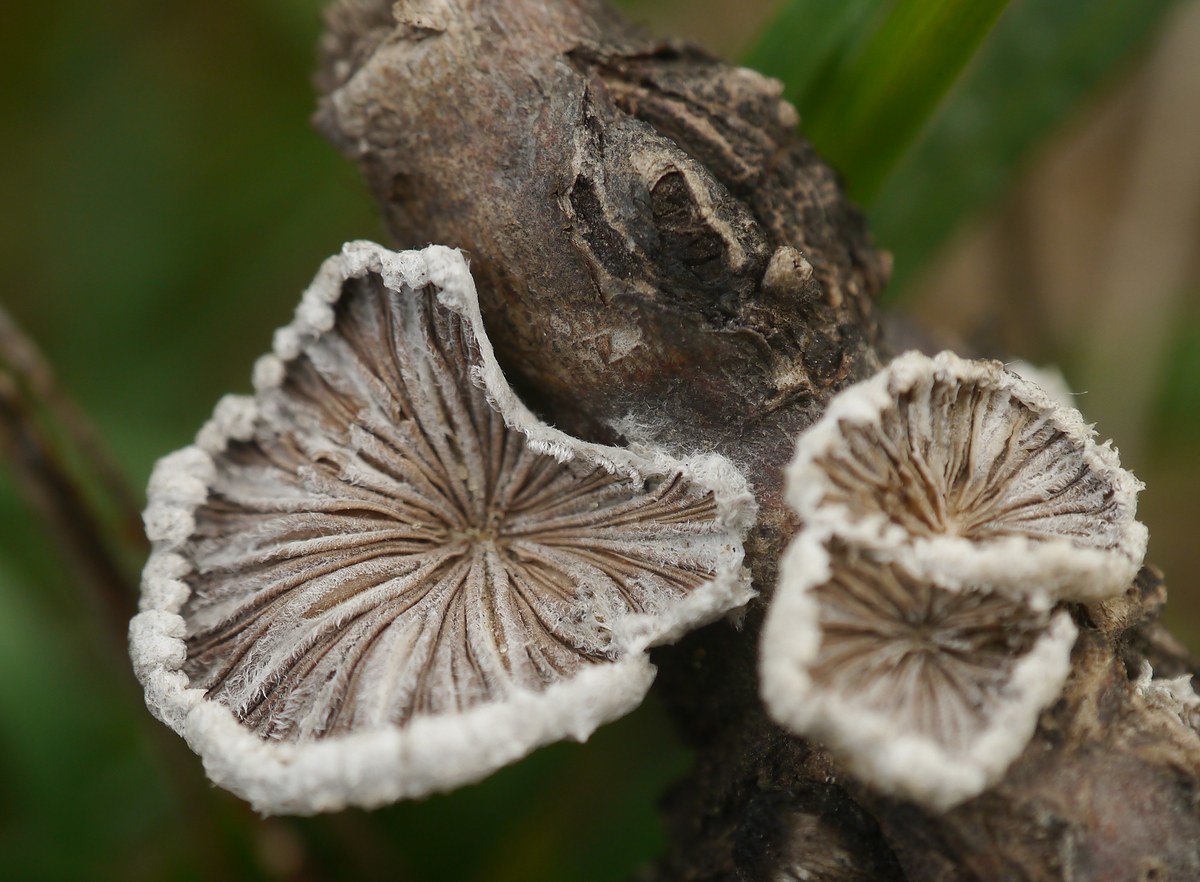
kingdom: Fungi
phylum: Basidiomycota
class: Agaricomycetes
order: Agaricales
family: Schizophyllaceae
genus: Schizophyllum
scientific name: Schizophyllum commune
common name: Common porecrust
